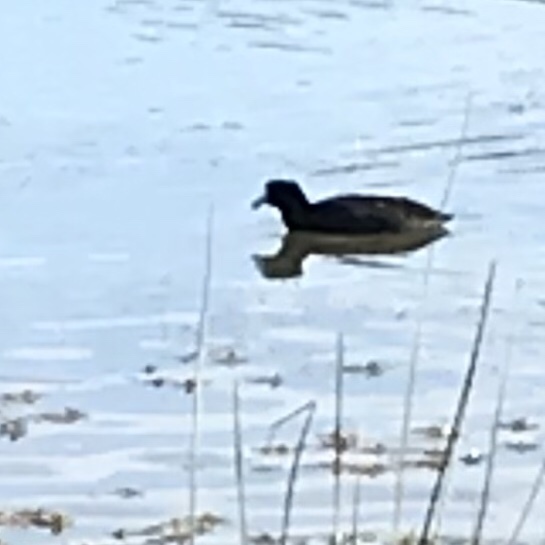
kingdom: Animalia
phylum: Chordata
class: Aves
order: Gruiformes
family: Rallidae
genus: Fulica
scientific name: Fulica americana
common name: American coot
